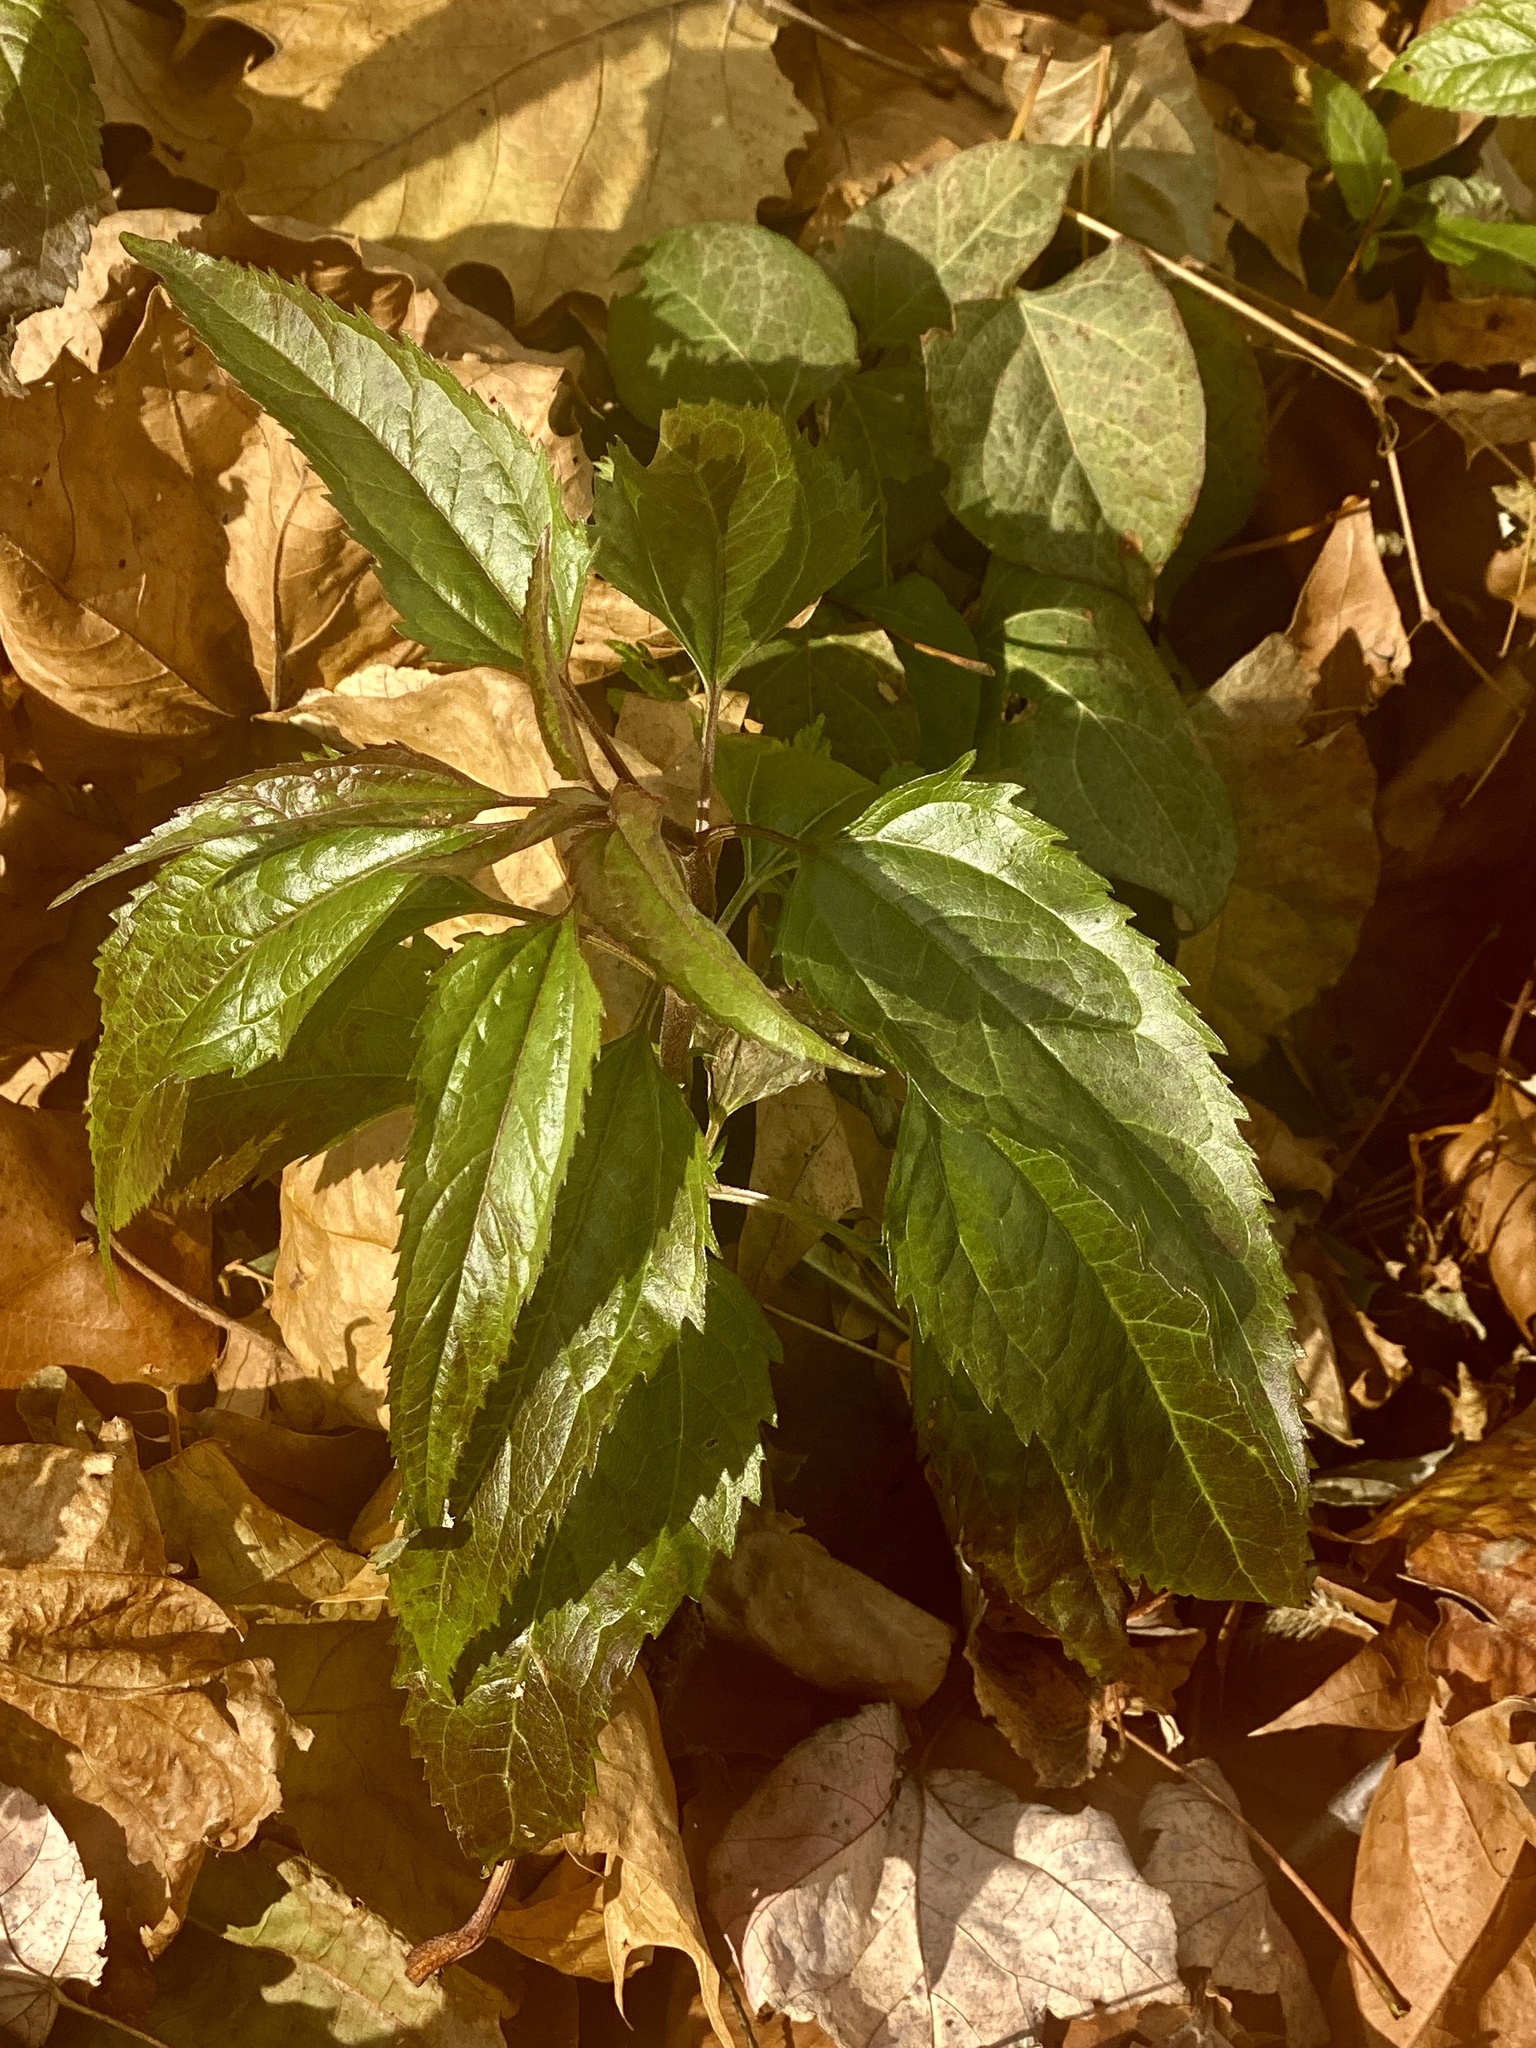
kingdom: Plantae
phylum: Tracheophyta
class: Magnoliopsida
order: Asterales
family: Asteraceae
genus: Eupatorium
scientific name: Eupatorium serotinum
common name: Late boneset
